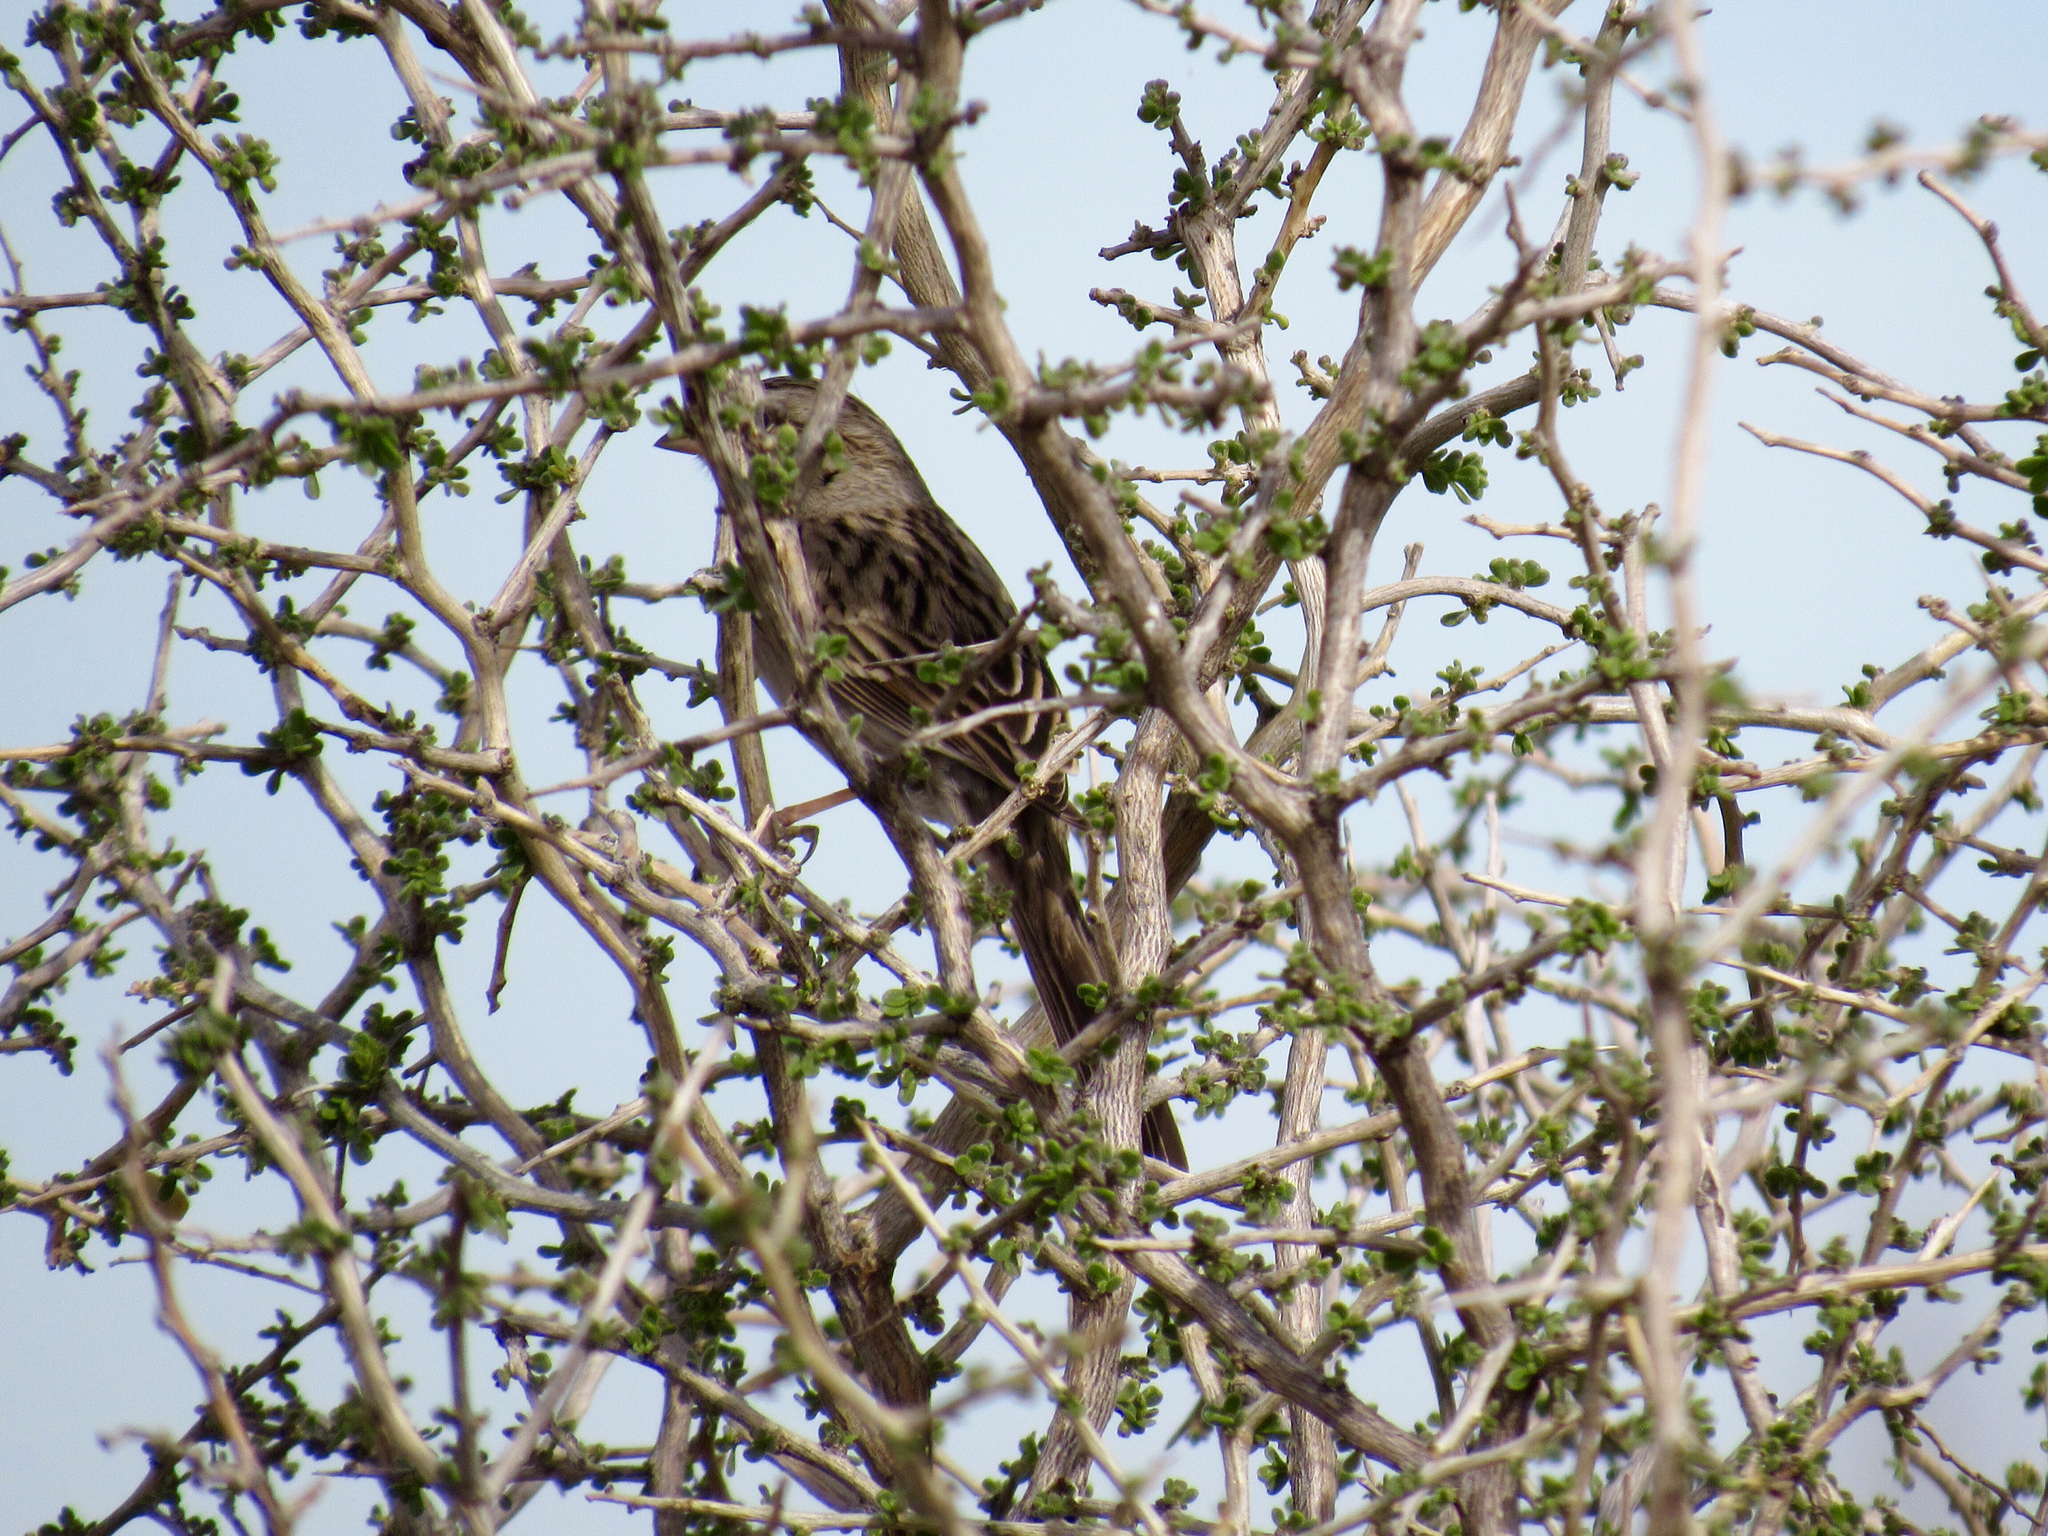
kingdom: Animalia
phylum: Chordata
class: Aves
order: Passeriformes
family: Passerellidae
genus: Spizella
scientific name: Spizella breweri
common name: Brewer's sparrow
